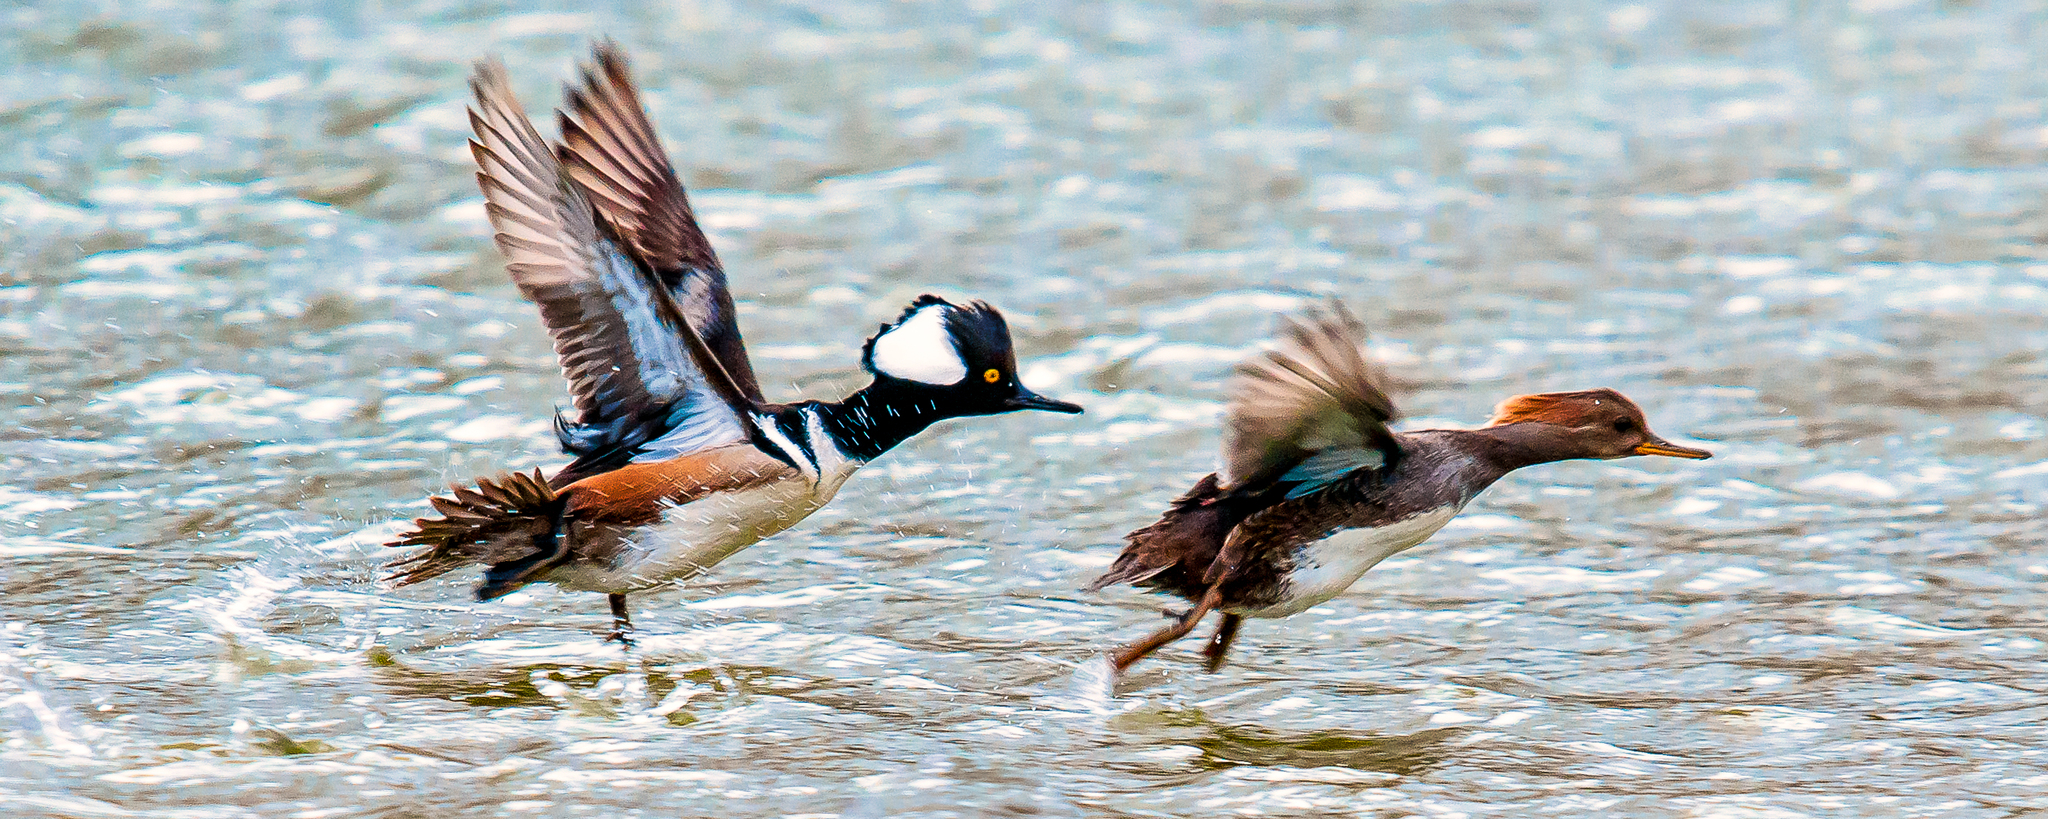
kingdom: Animalia
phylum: Chordata
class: Aves
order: Anseriformes
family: Anatidae
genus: Lophodytes
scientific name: Lophodytes cucullatus
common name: Hooded merganser
